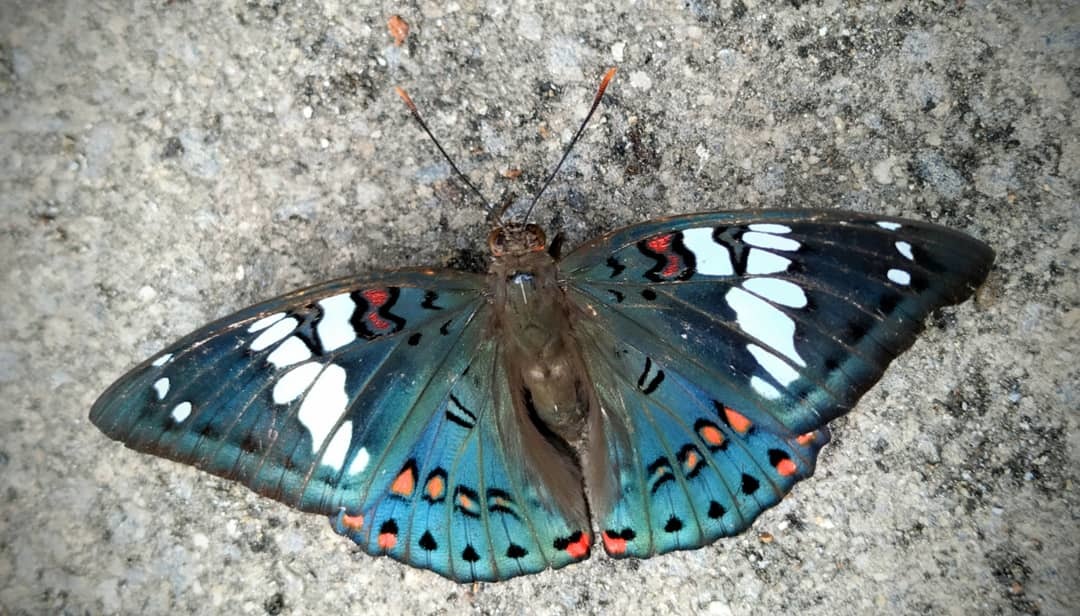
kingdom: Animalia
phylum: Arthropoda
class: Insecta
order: Lepidoptera
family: Nymphalidae
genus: Euthalia
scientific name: Euthalia lubentina
